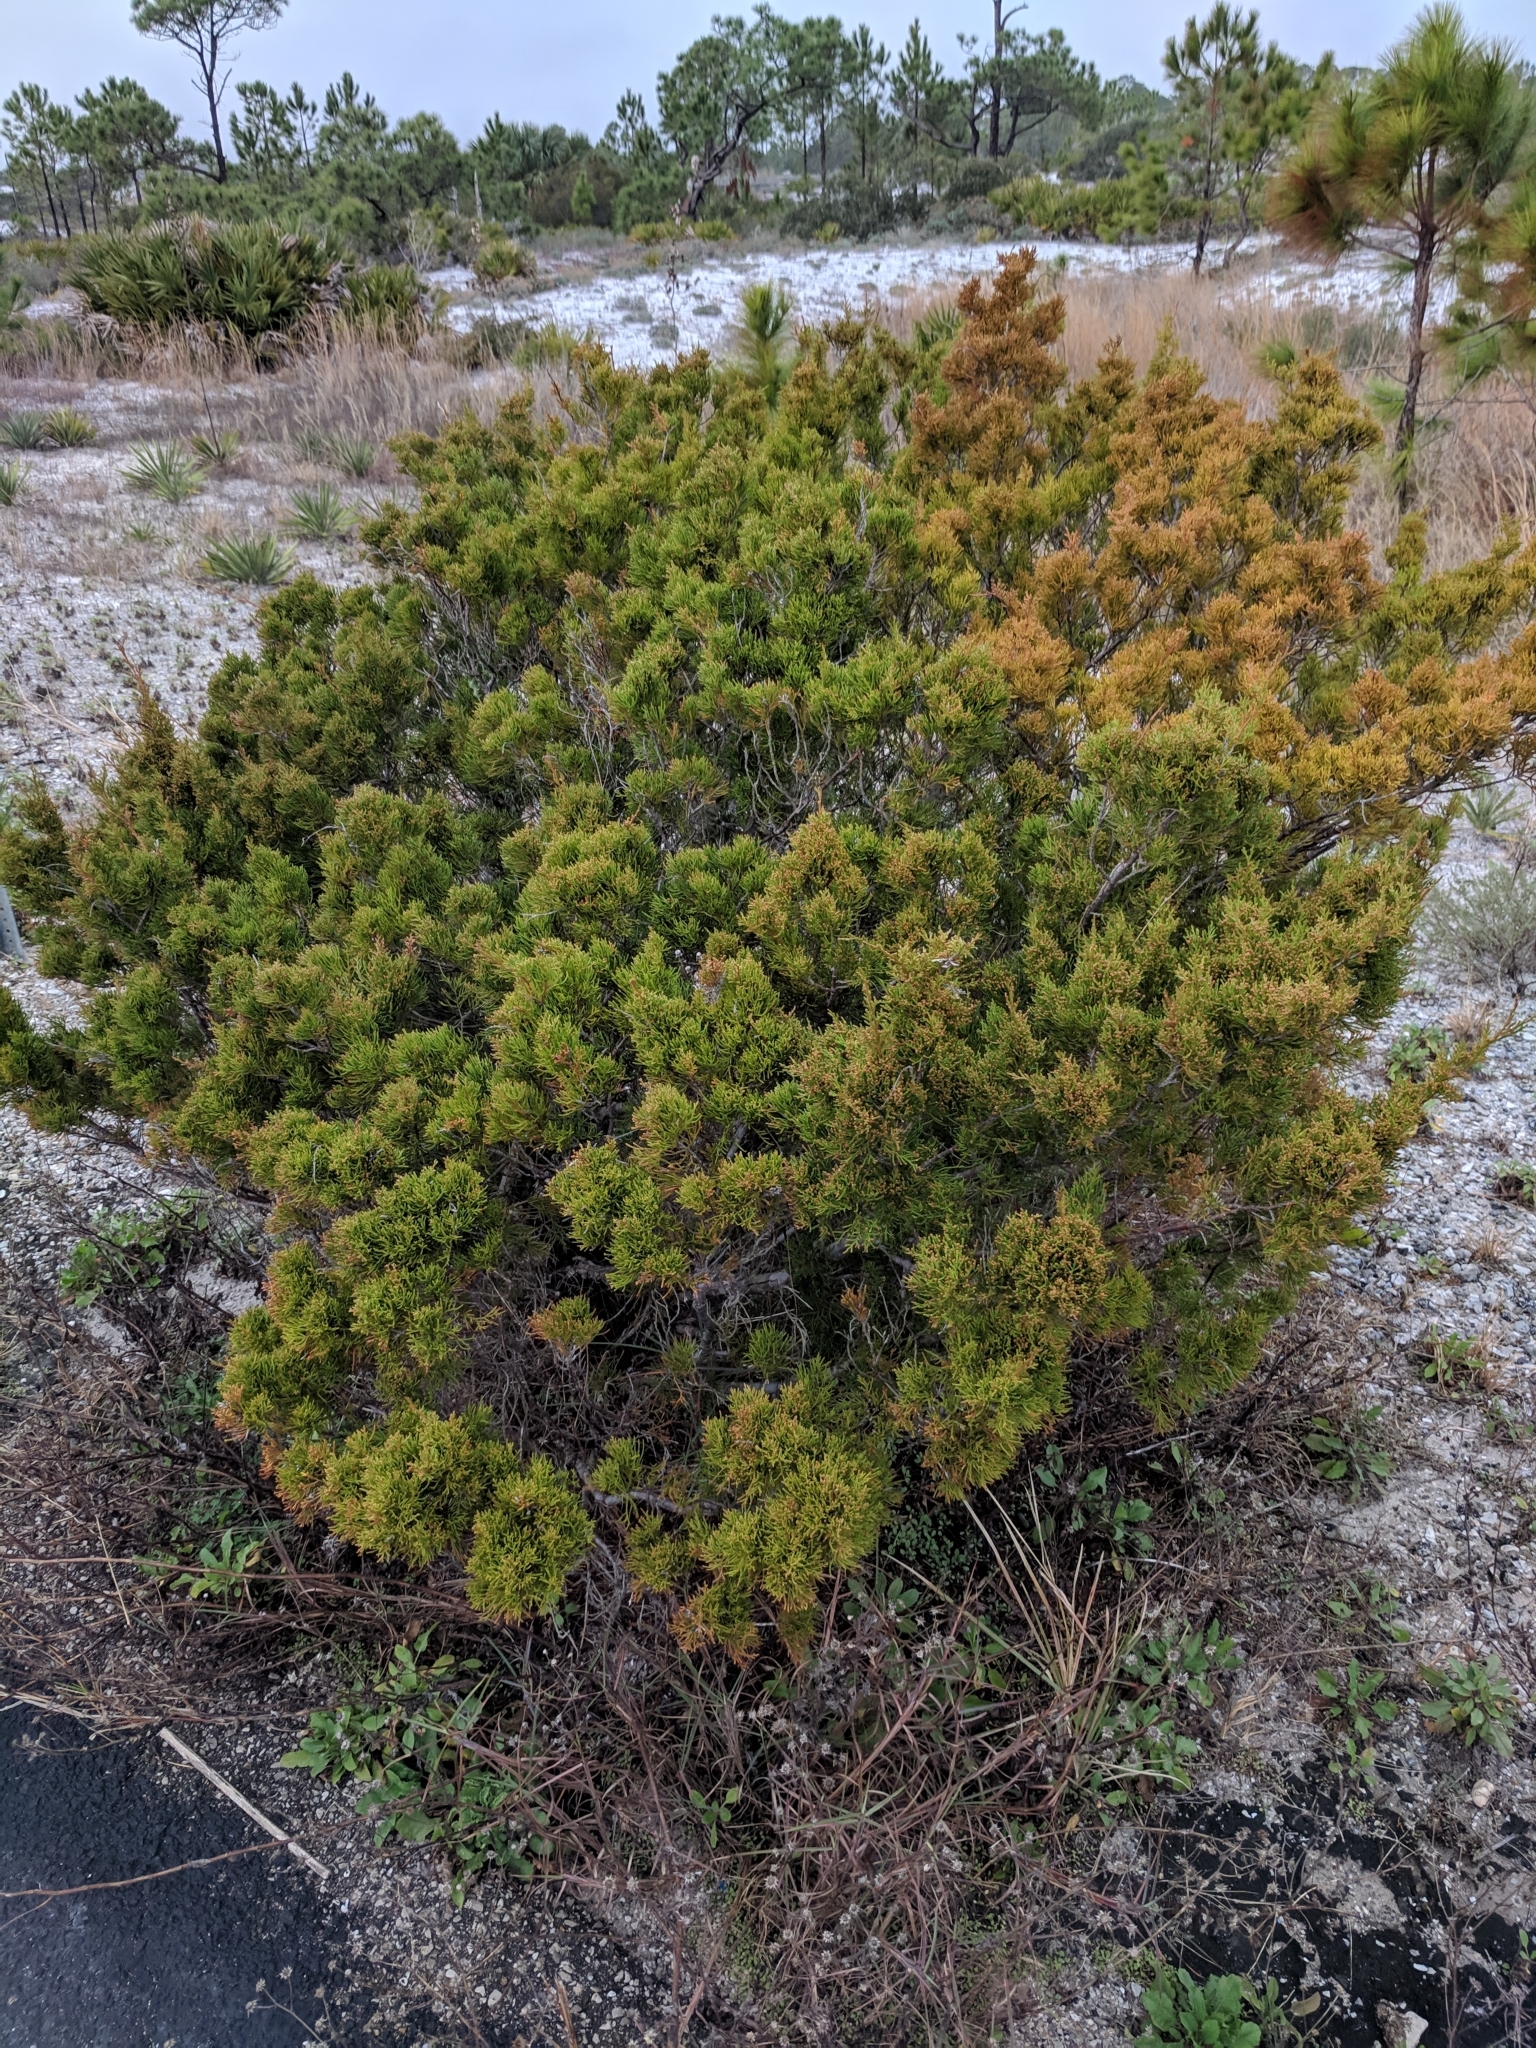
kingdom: Plantae
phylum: Tracheophyta
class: Pinopsida
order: Pinales
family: Cupressaceae
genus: Juniperus
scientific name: Juniperus virginiana
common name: Red juniper
